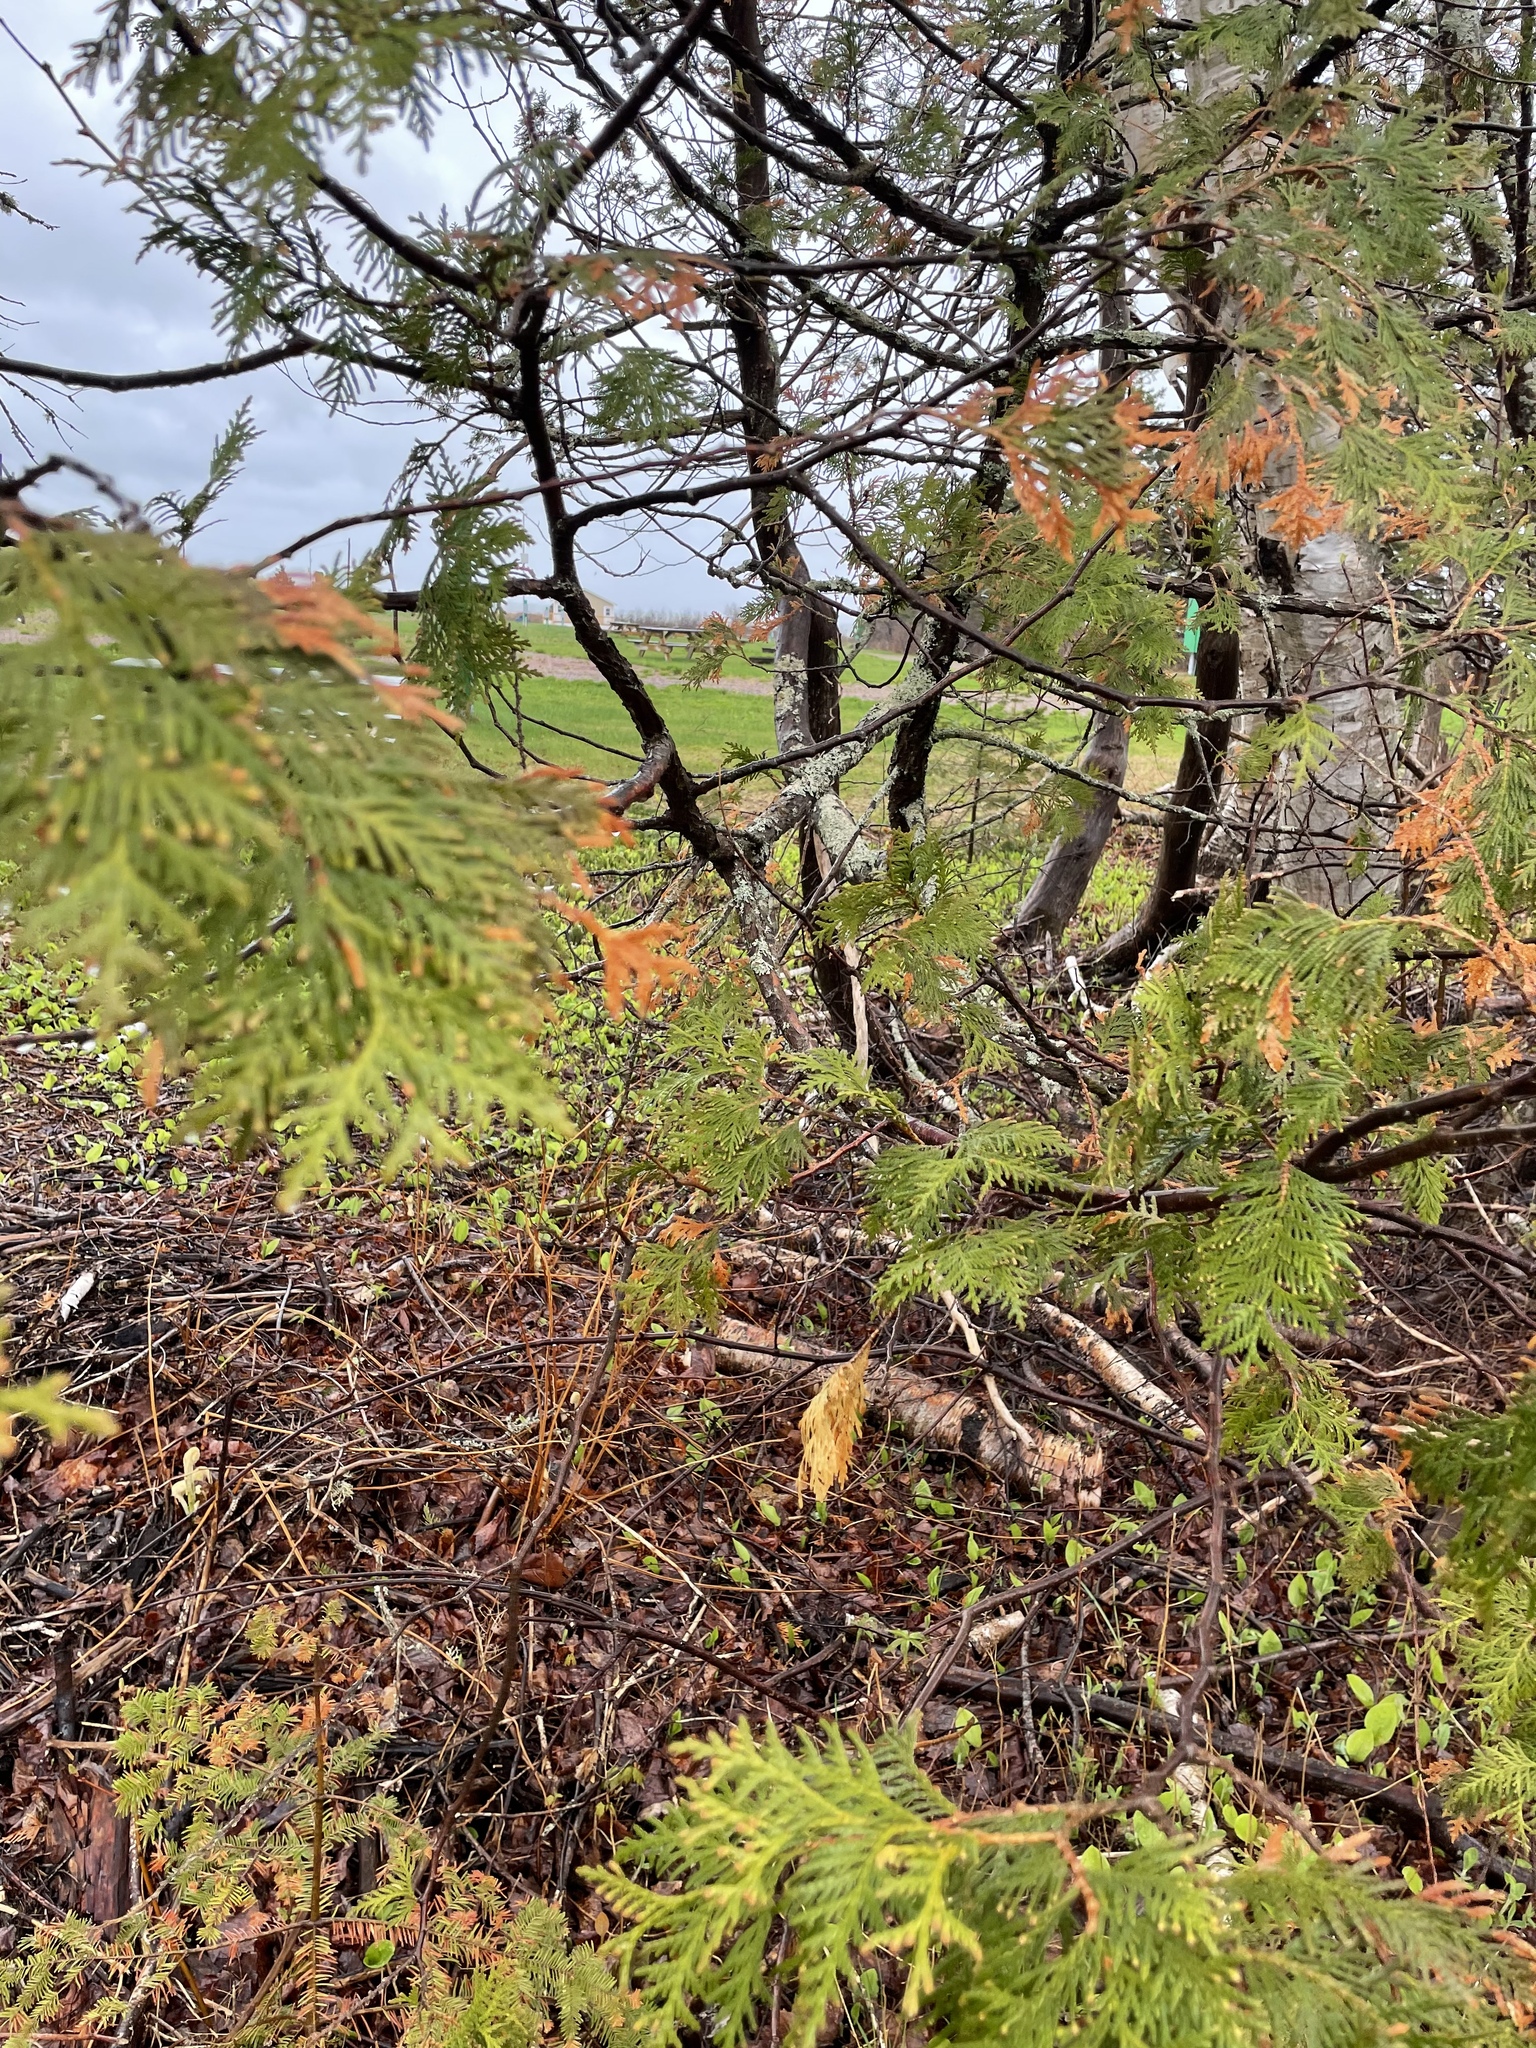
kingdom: Plantae
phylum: Tracheophyta
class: Pinopsida
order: Pinales
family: Cupressaceae
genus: Thuja
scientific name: Thuja occidentalis
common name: Northern white-cedar
